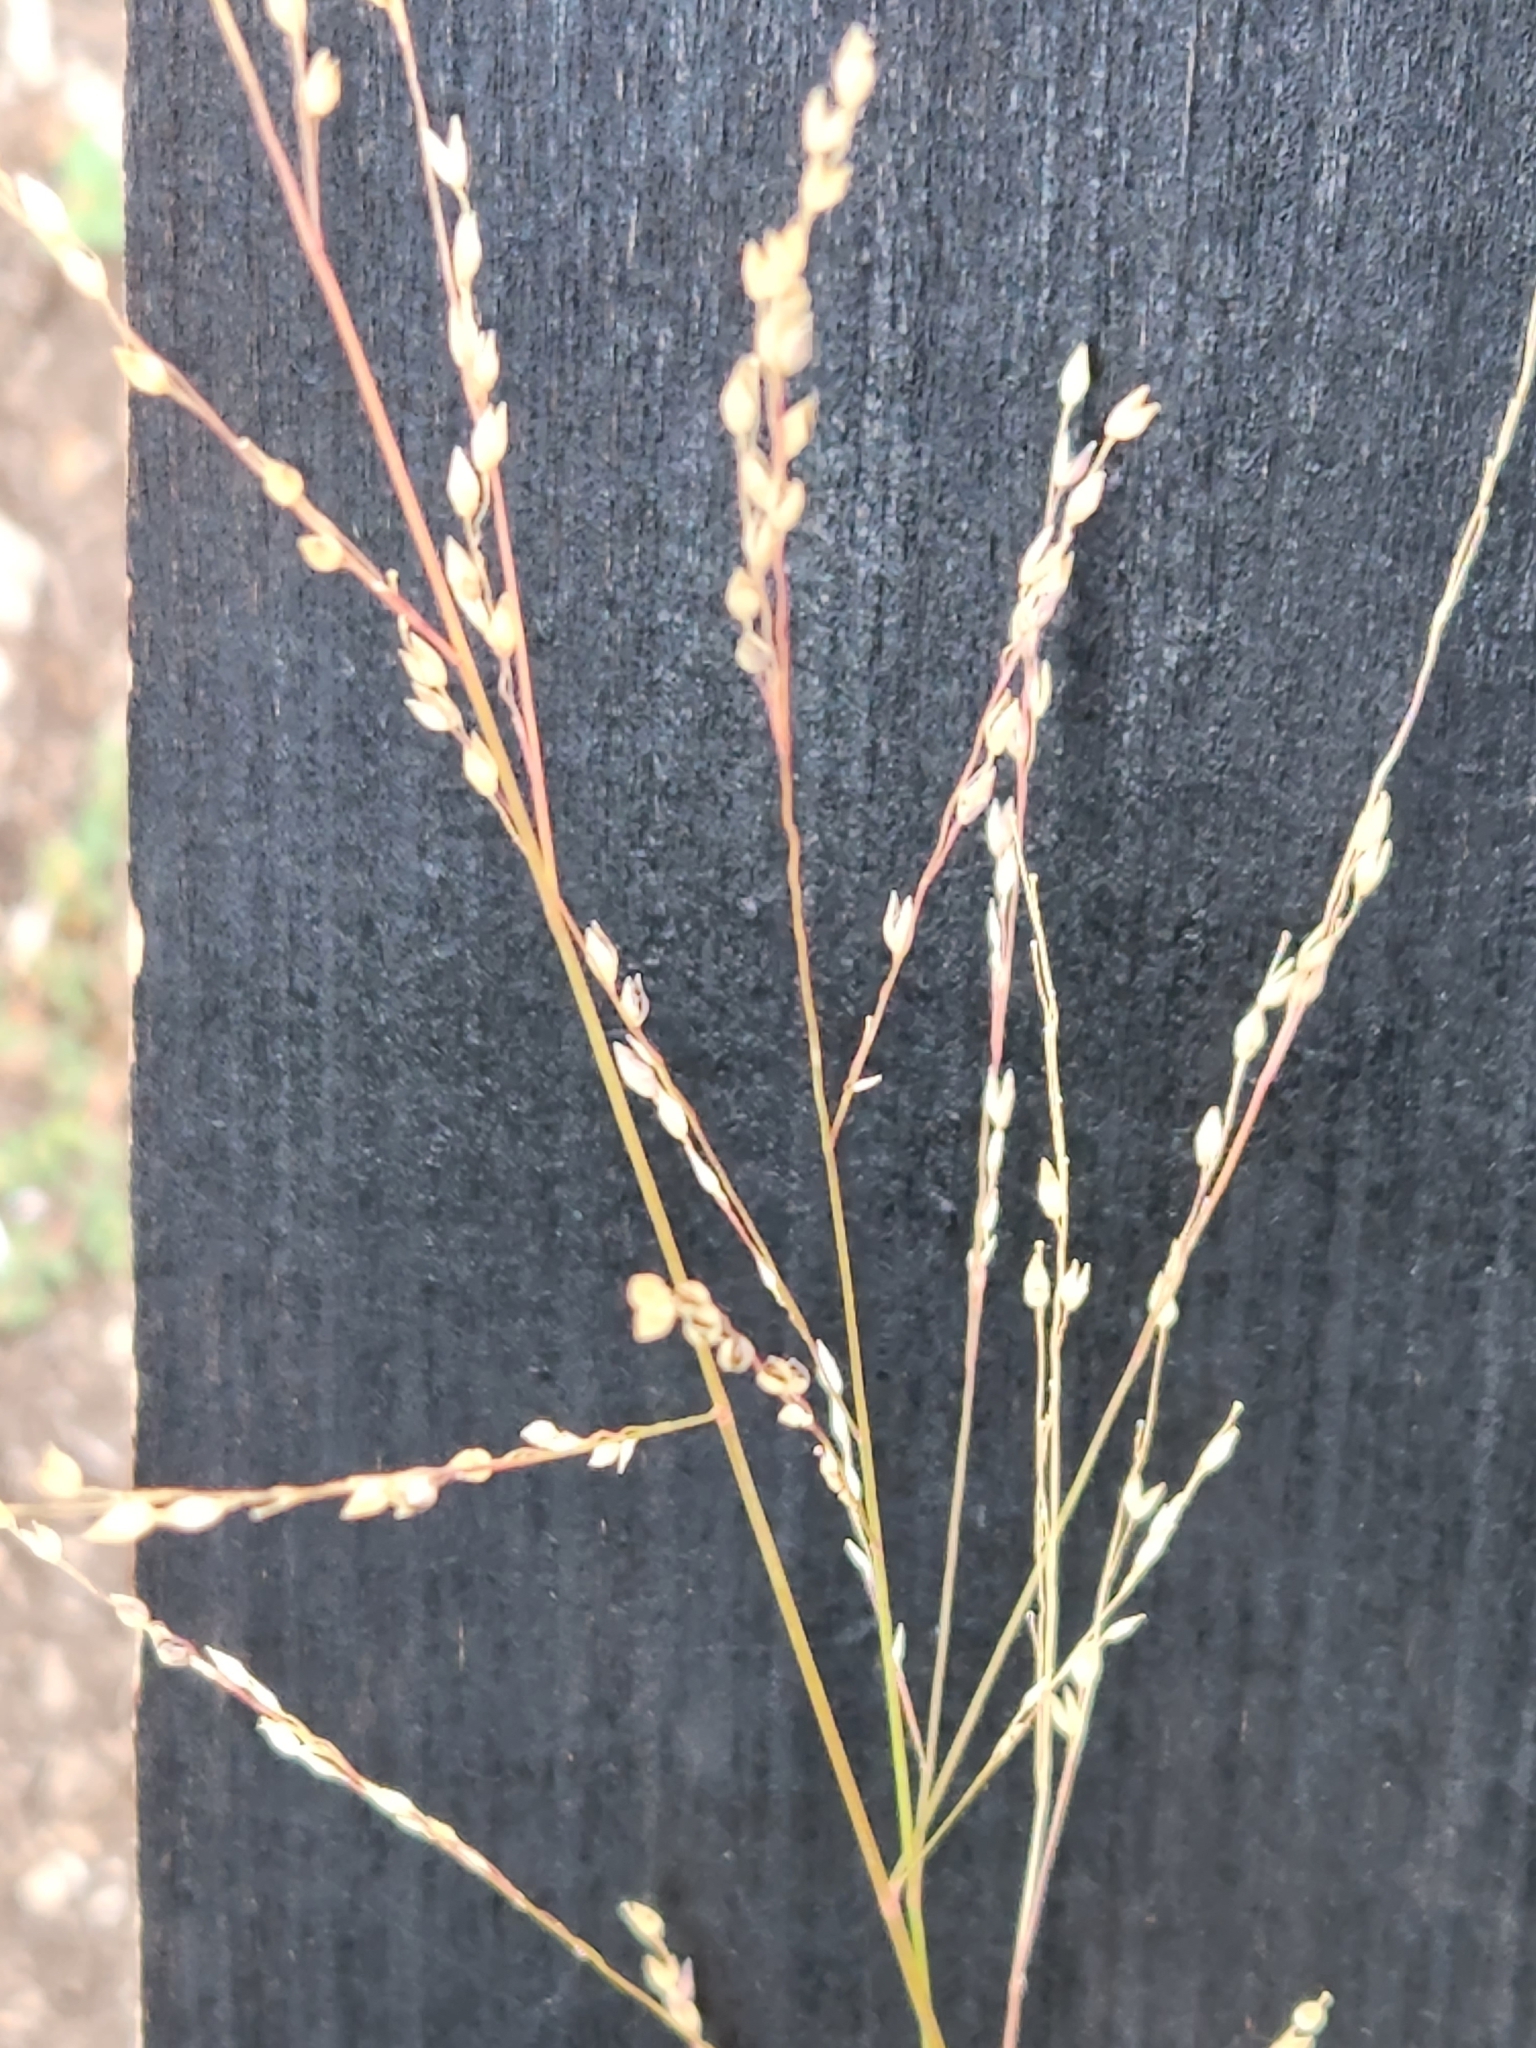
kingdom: Plantae
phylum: Tracheophyta
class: Liliopsida
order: Poales
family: Poaceae
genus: Panicum
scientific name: Panicum hallii
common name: Hall's witchgrass
